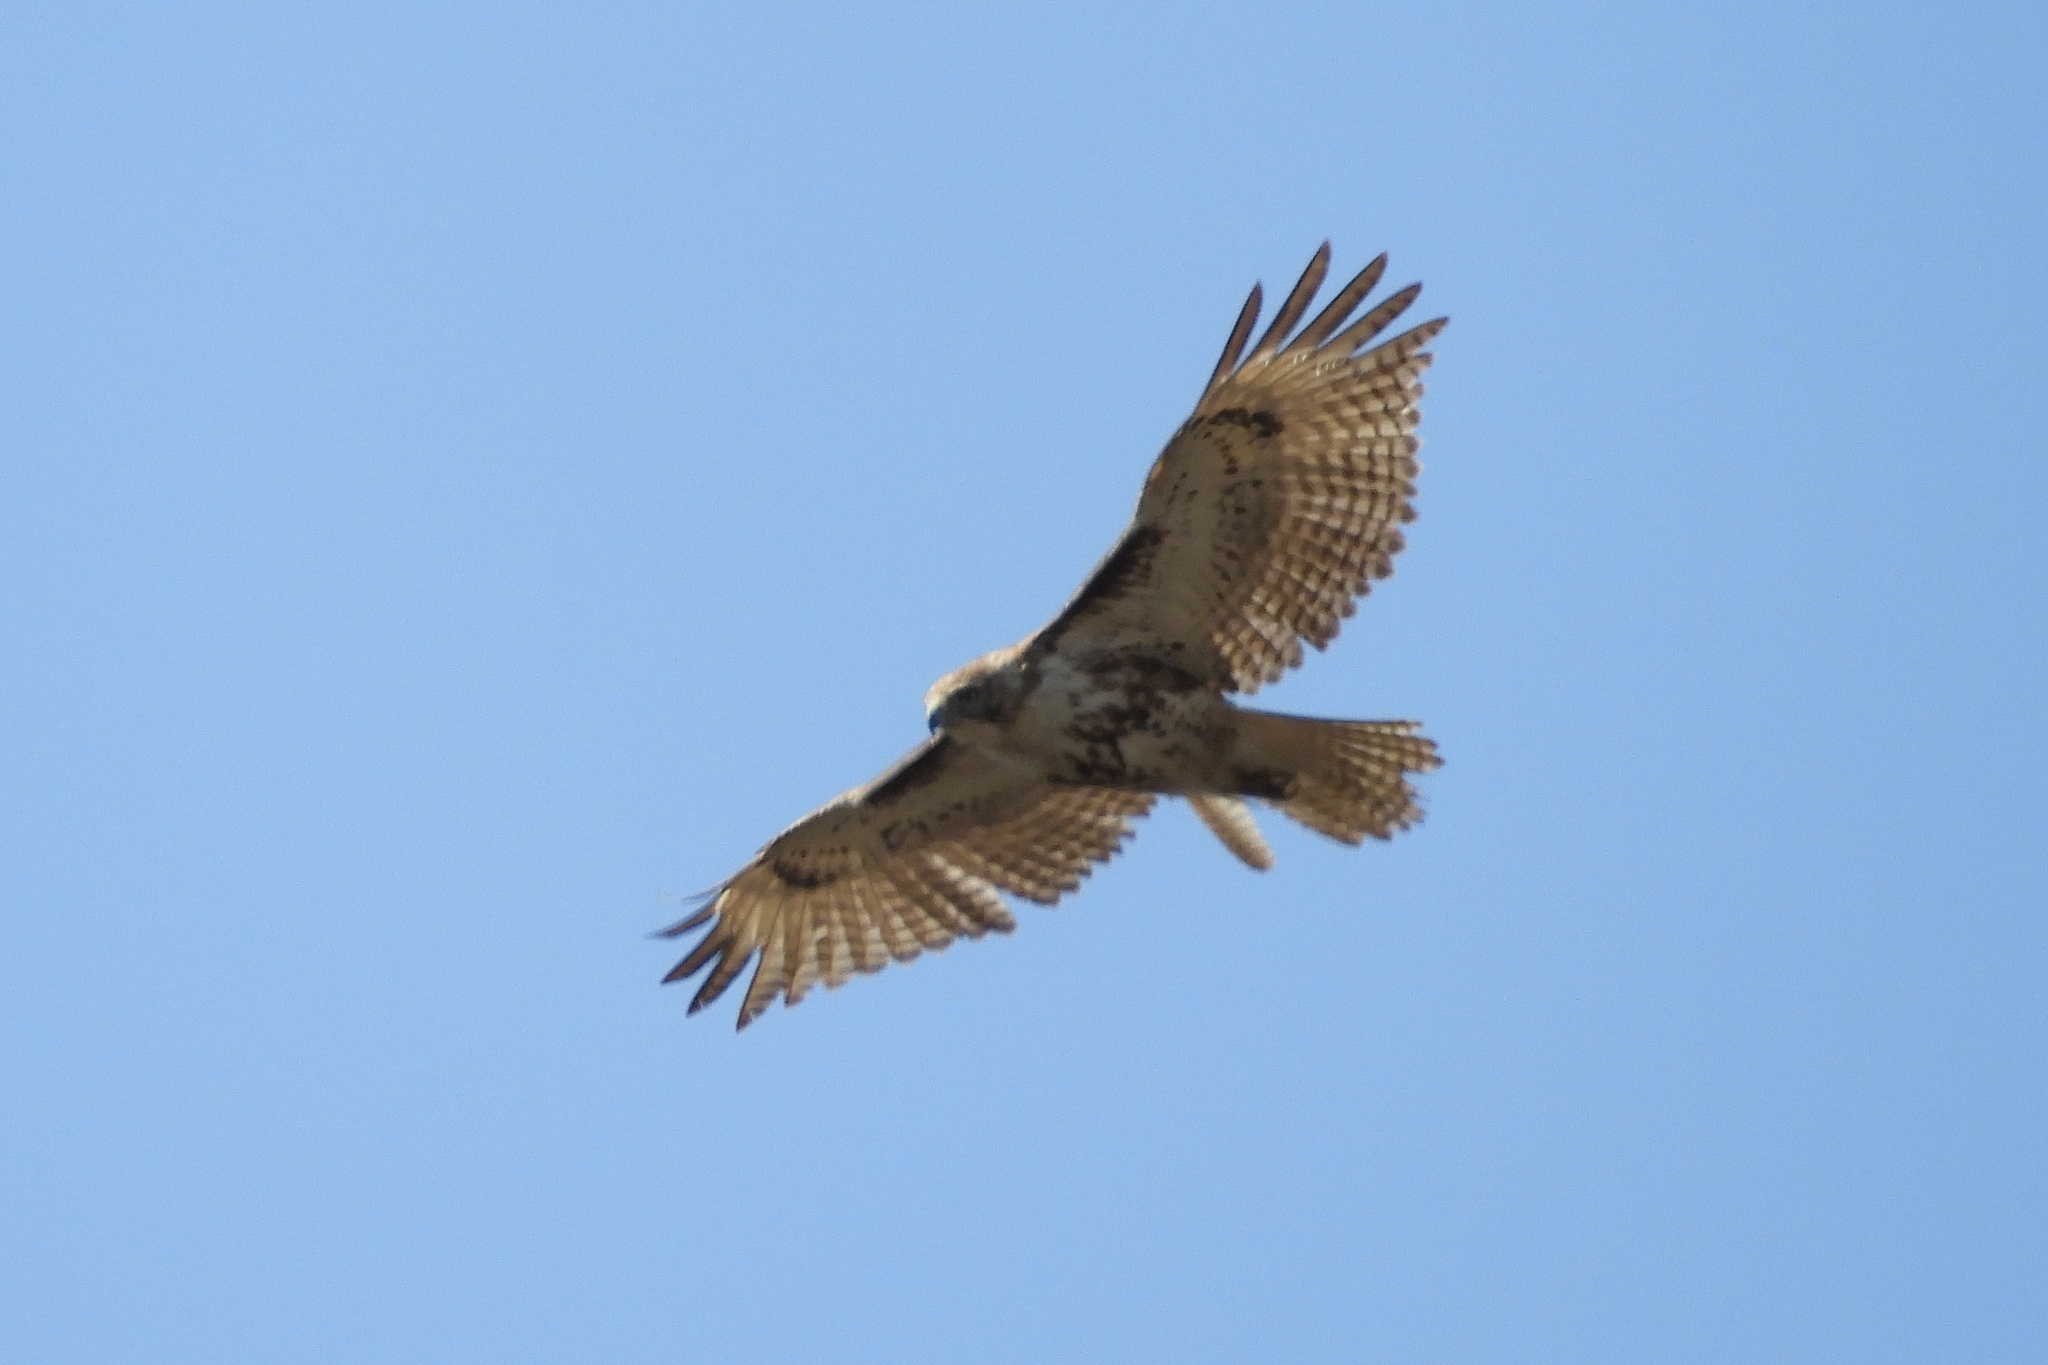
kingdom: Animalia
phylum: Chordata
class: Aves
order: Accipitriformes
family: Accipitridae
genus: Buteo
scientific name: Buteo jamaicensis
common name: Red-tailed hawk
